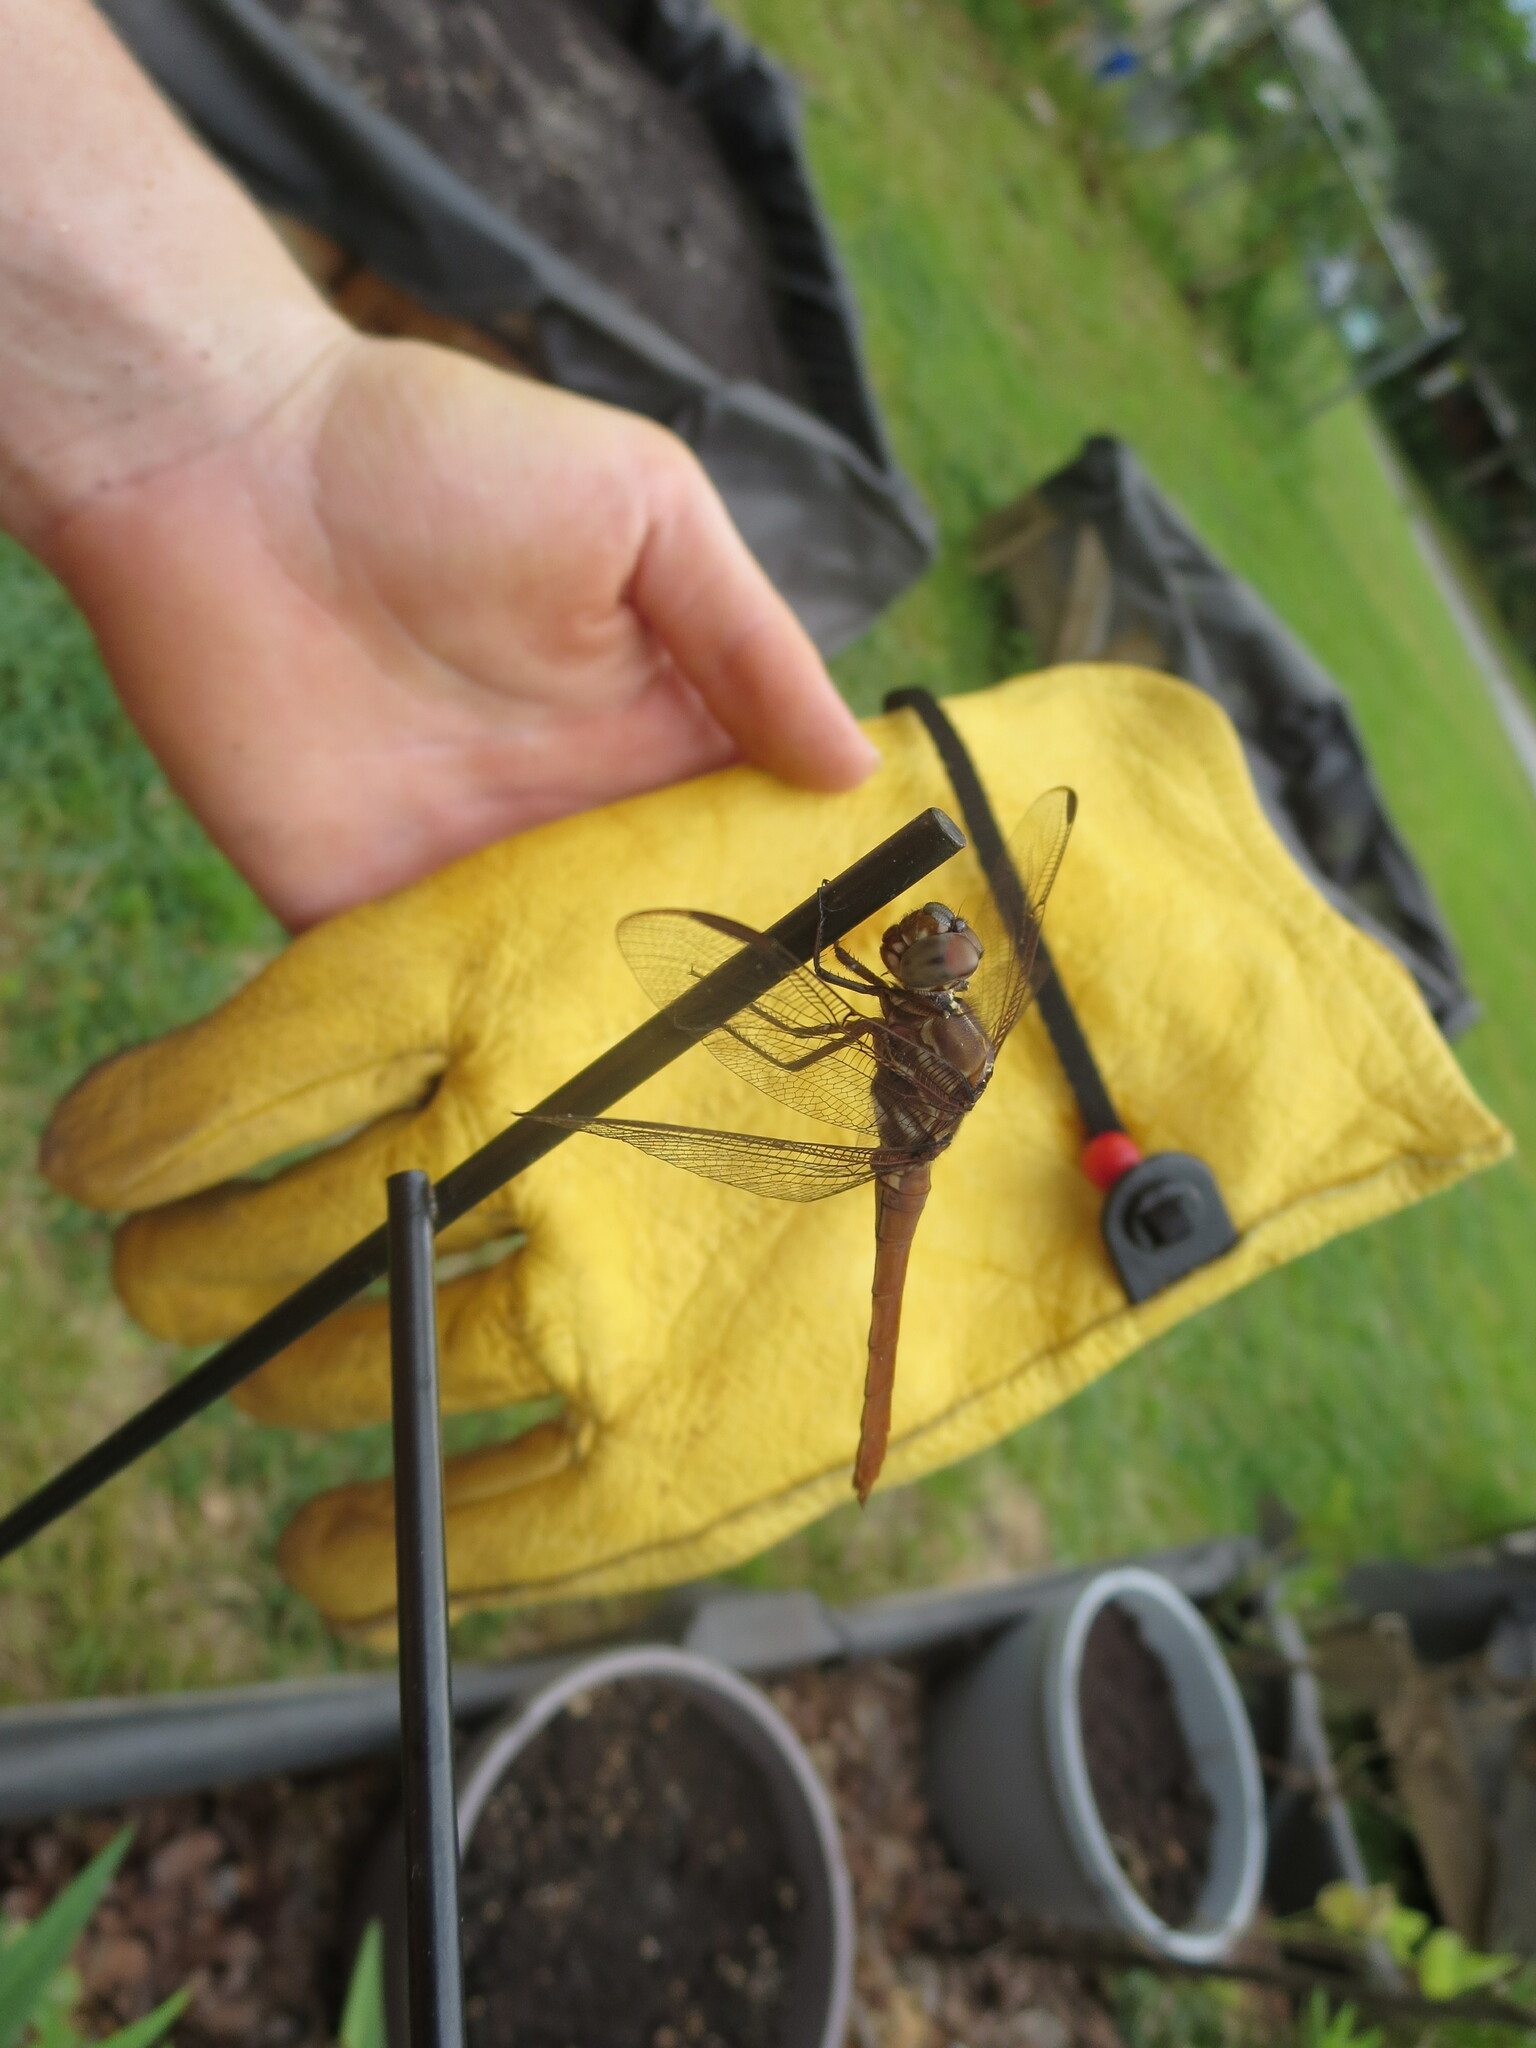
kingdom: Animalia
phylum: Arthropoda
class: Insecta
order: Odonata
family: Libellulidae
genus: Orthemis
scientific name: Orthemis ferruginea
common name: Roseate skimmer
